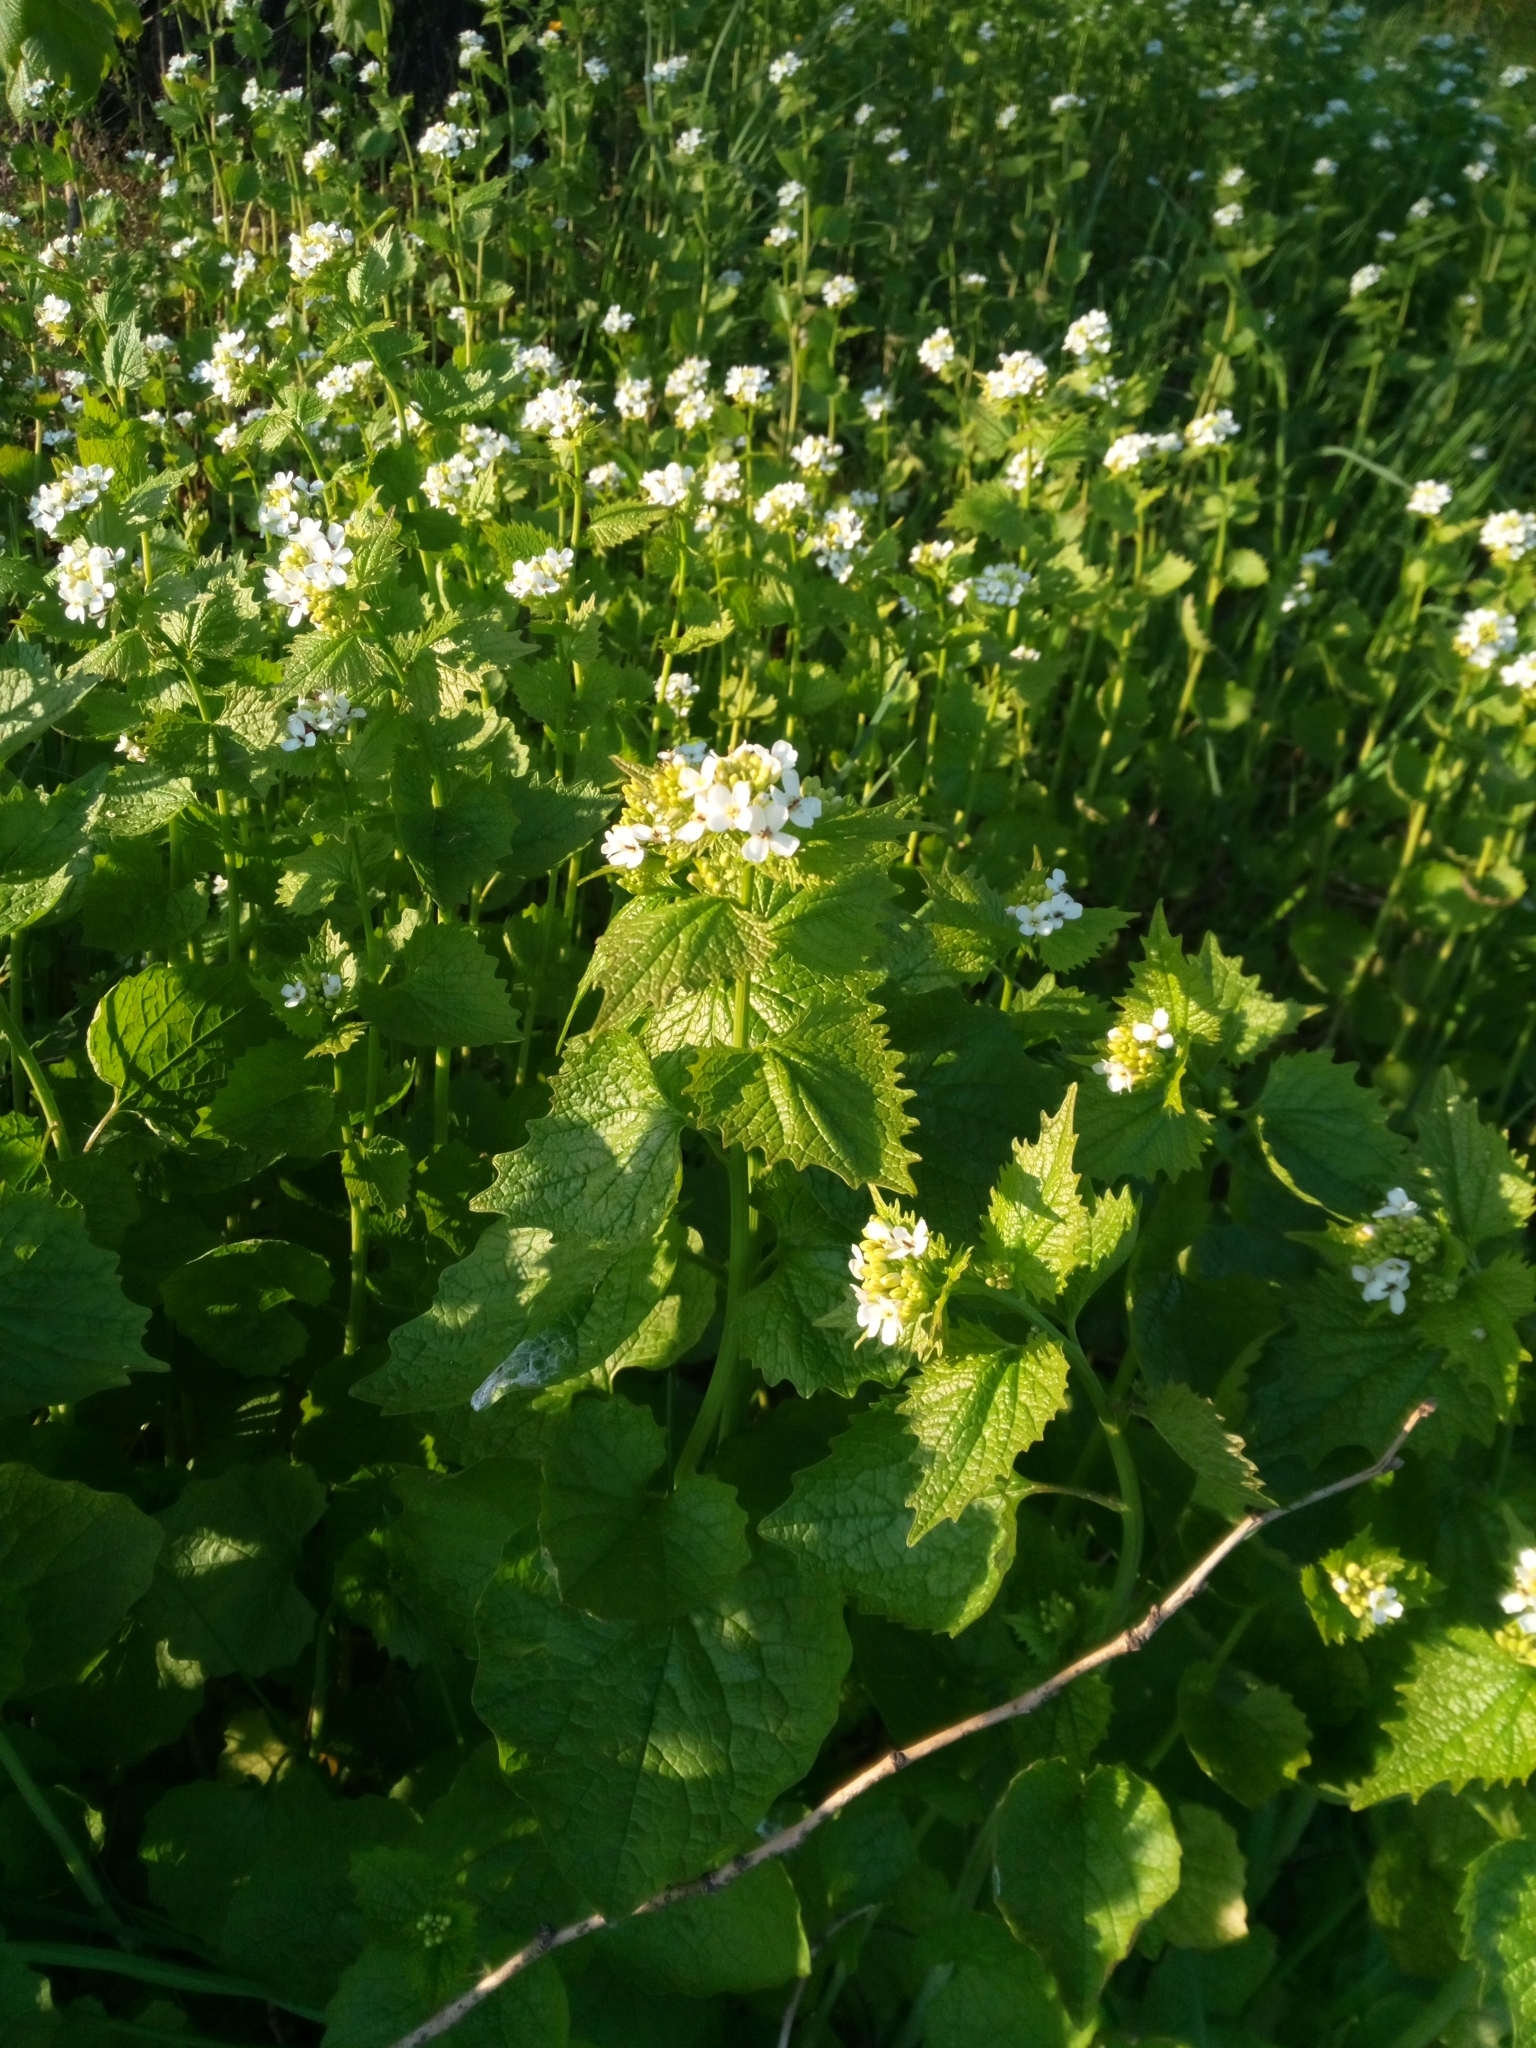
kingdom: Plantae
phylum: Tracheophyta
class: Magnoliopsida
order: Brassicales
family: Brassicaceae
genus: Alliaria
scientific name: Alliaria petiolata
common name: Garlic mustard
